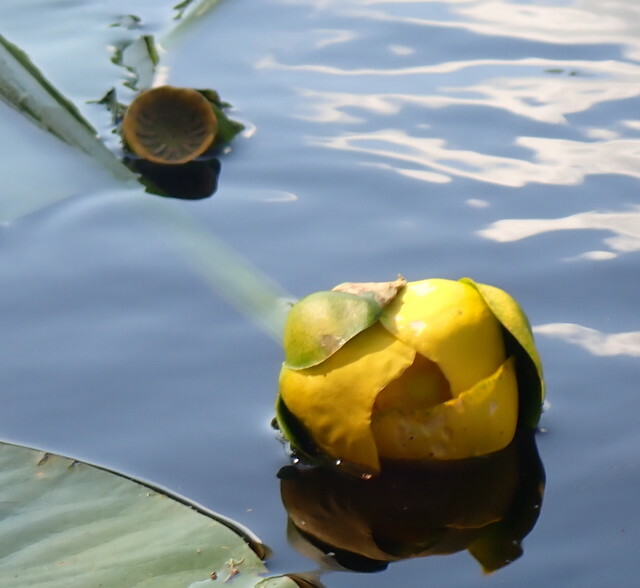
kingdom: Plantae
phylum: Tracheophyta
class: Magnoliopsida
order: Nymphaeales
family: Nymphaeaceae
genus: Nuphar
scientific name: Nuphar advena
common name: Spatter-dock
